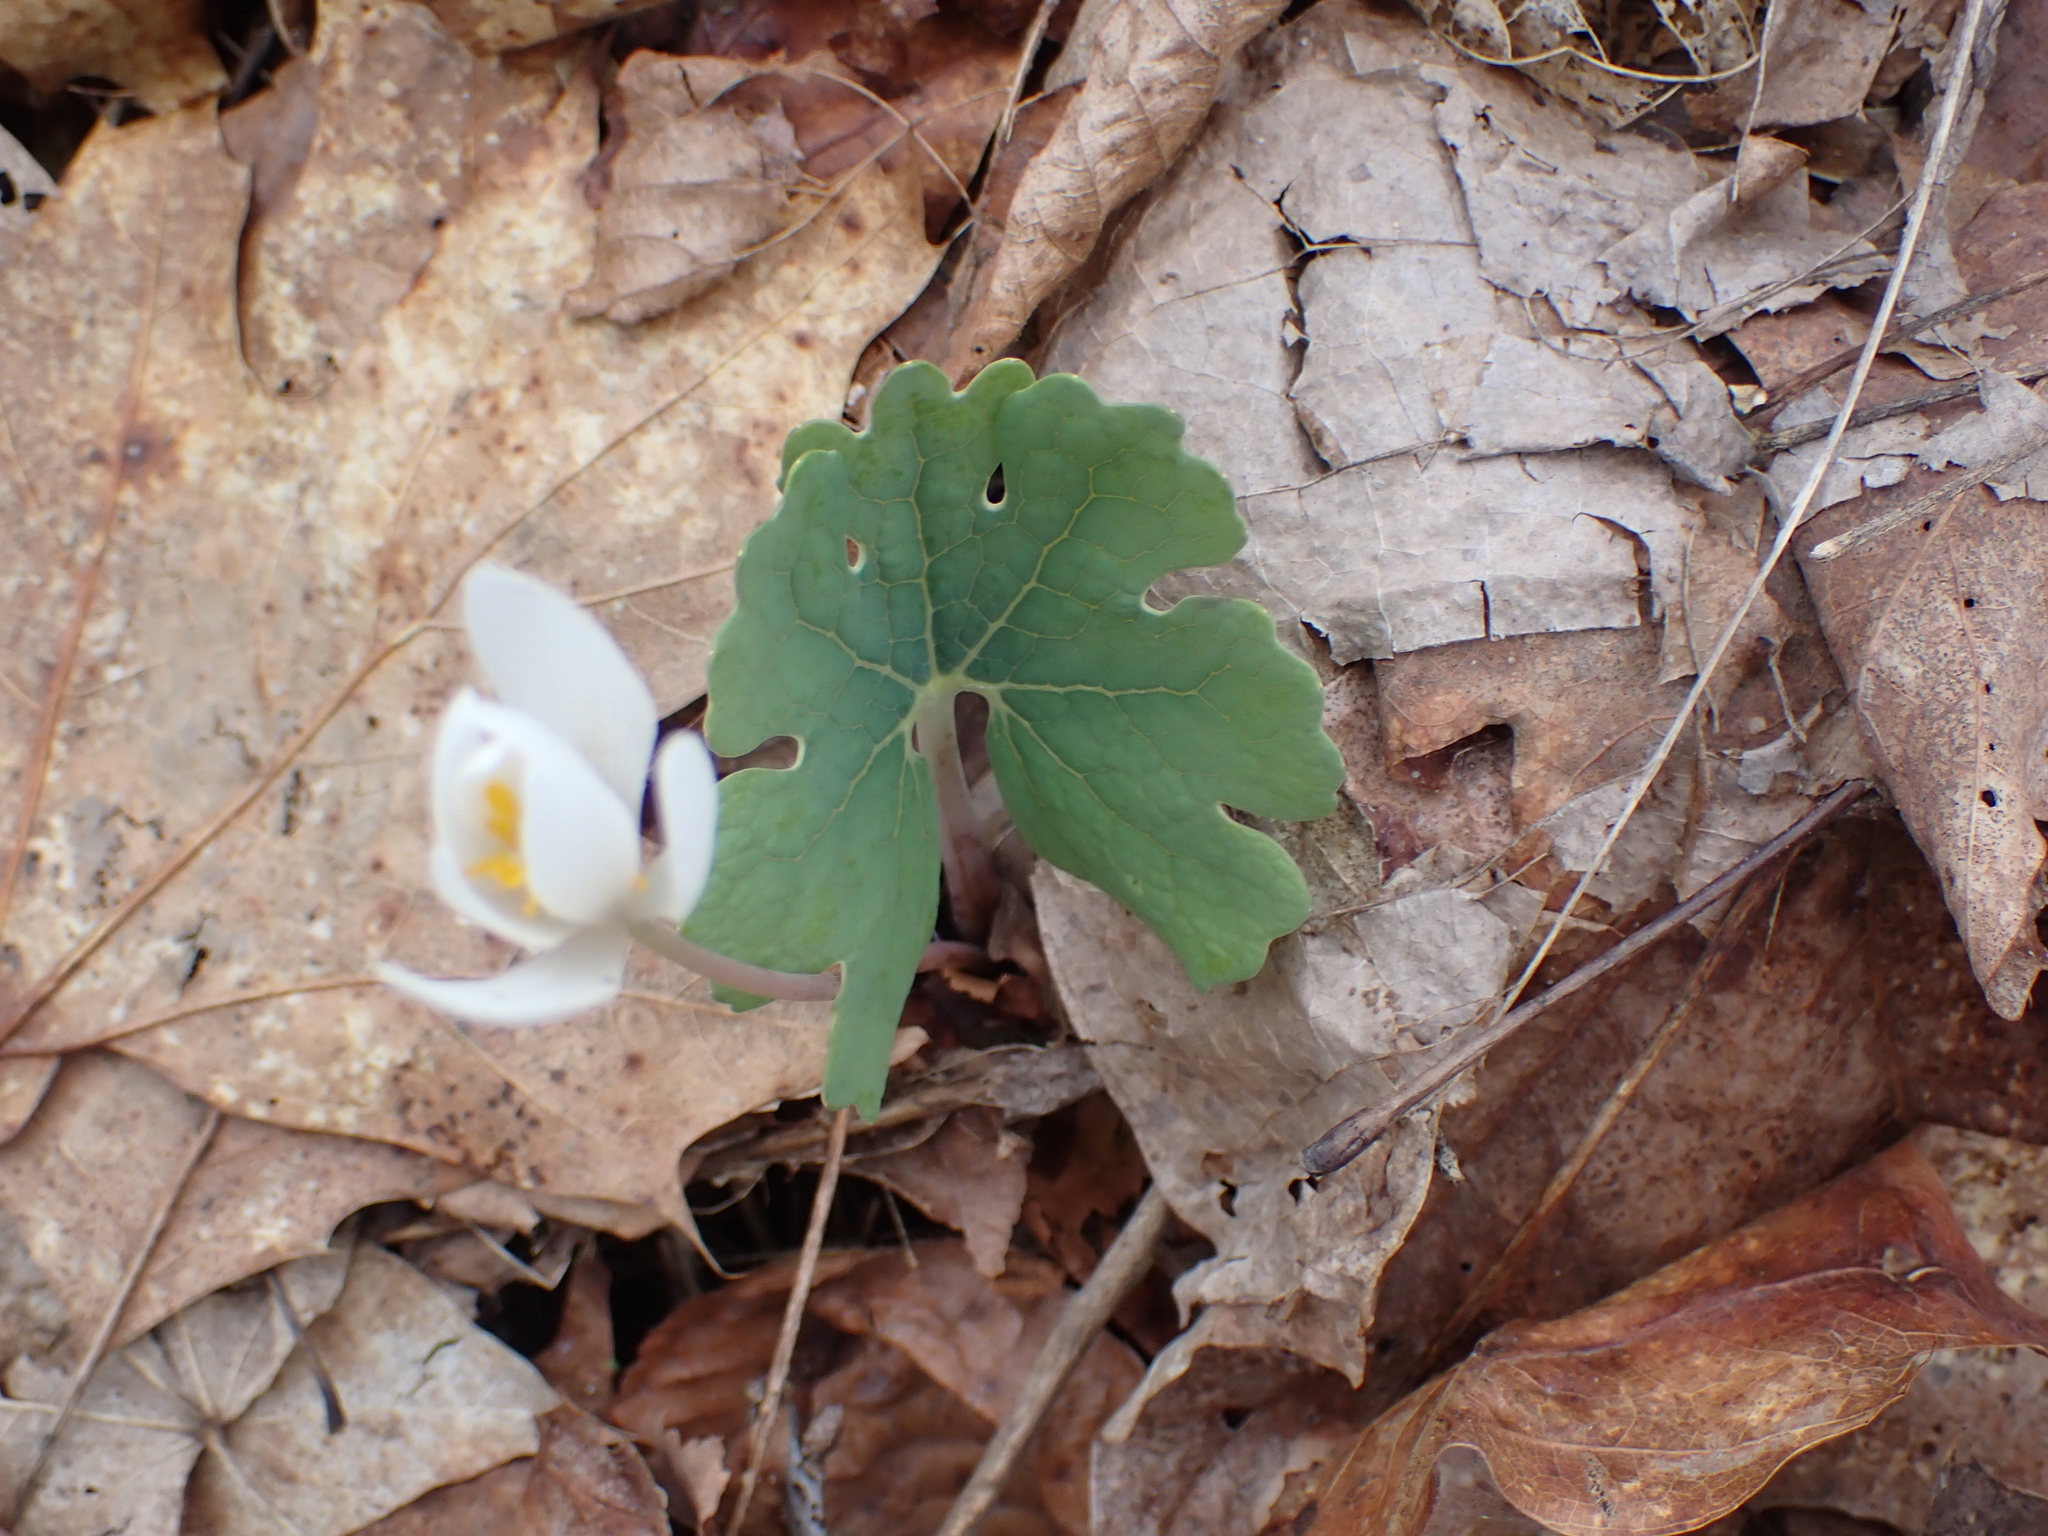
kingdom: Plantae
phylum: Tracheophyta
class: Magnoliopsida
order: Ranunculales
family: Papaveraceae
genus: Sanguinaria
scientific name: Sanguinaria canadensis
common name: Bloodroot
